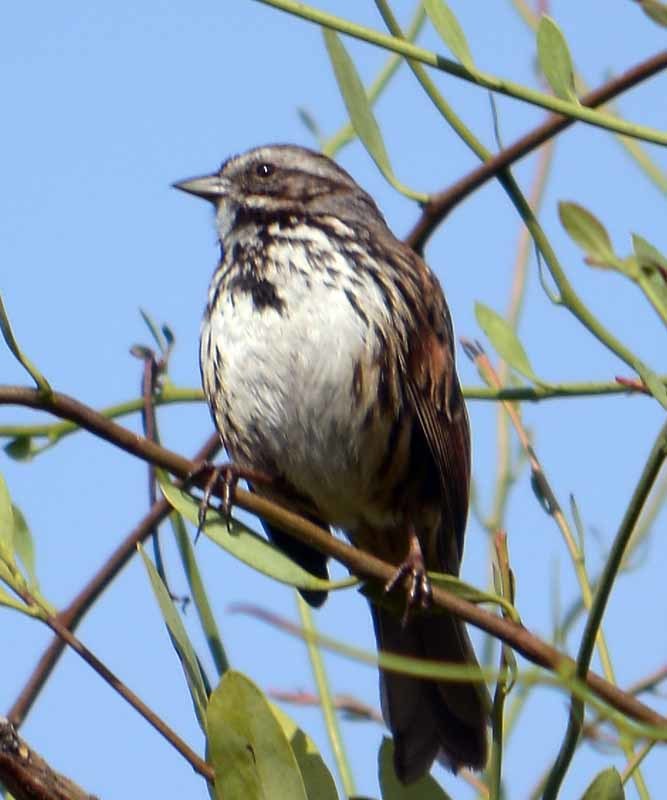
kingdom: Animalia
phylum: Chordata
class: Aves
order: Passeriformes
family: Passerellidae
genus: Melospiza
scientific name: Melospiza melodia
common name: Song sparrow
